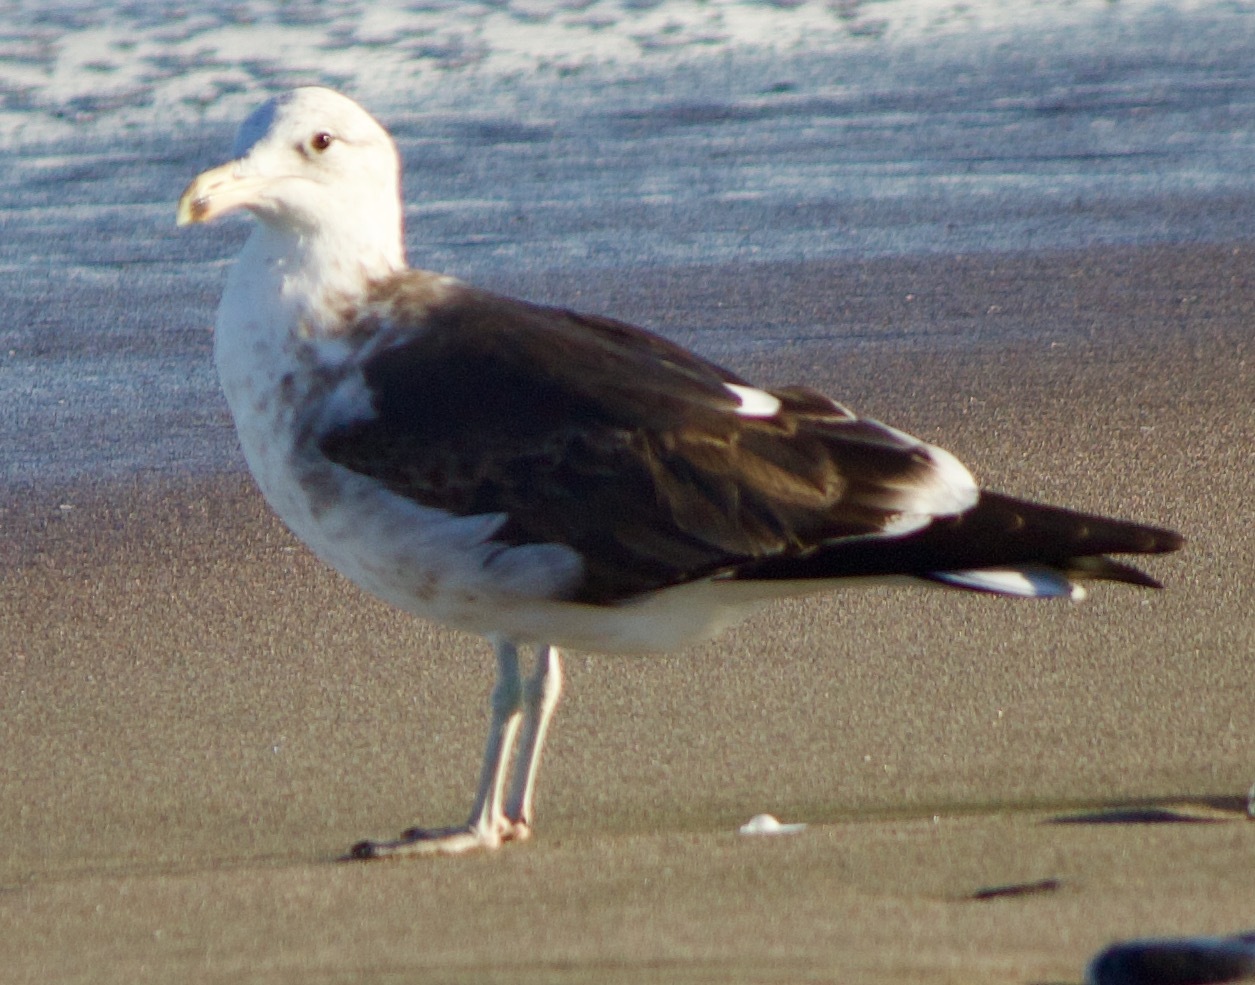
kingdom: Animalia
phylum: Chordata
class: Aves
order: Charadriiformes
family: Laridae
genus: Larus
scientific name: Larus dominicanus
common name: Kelp gull
